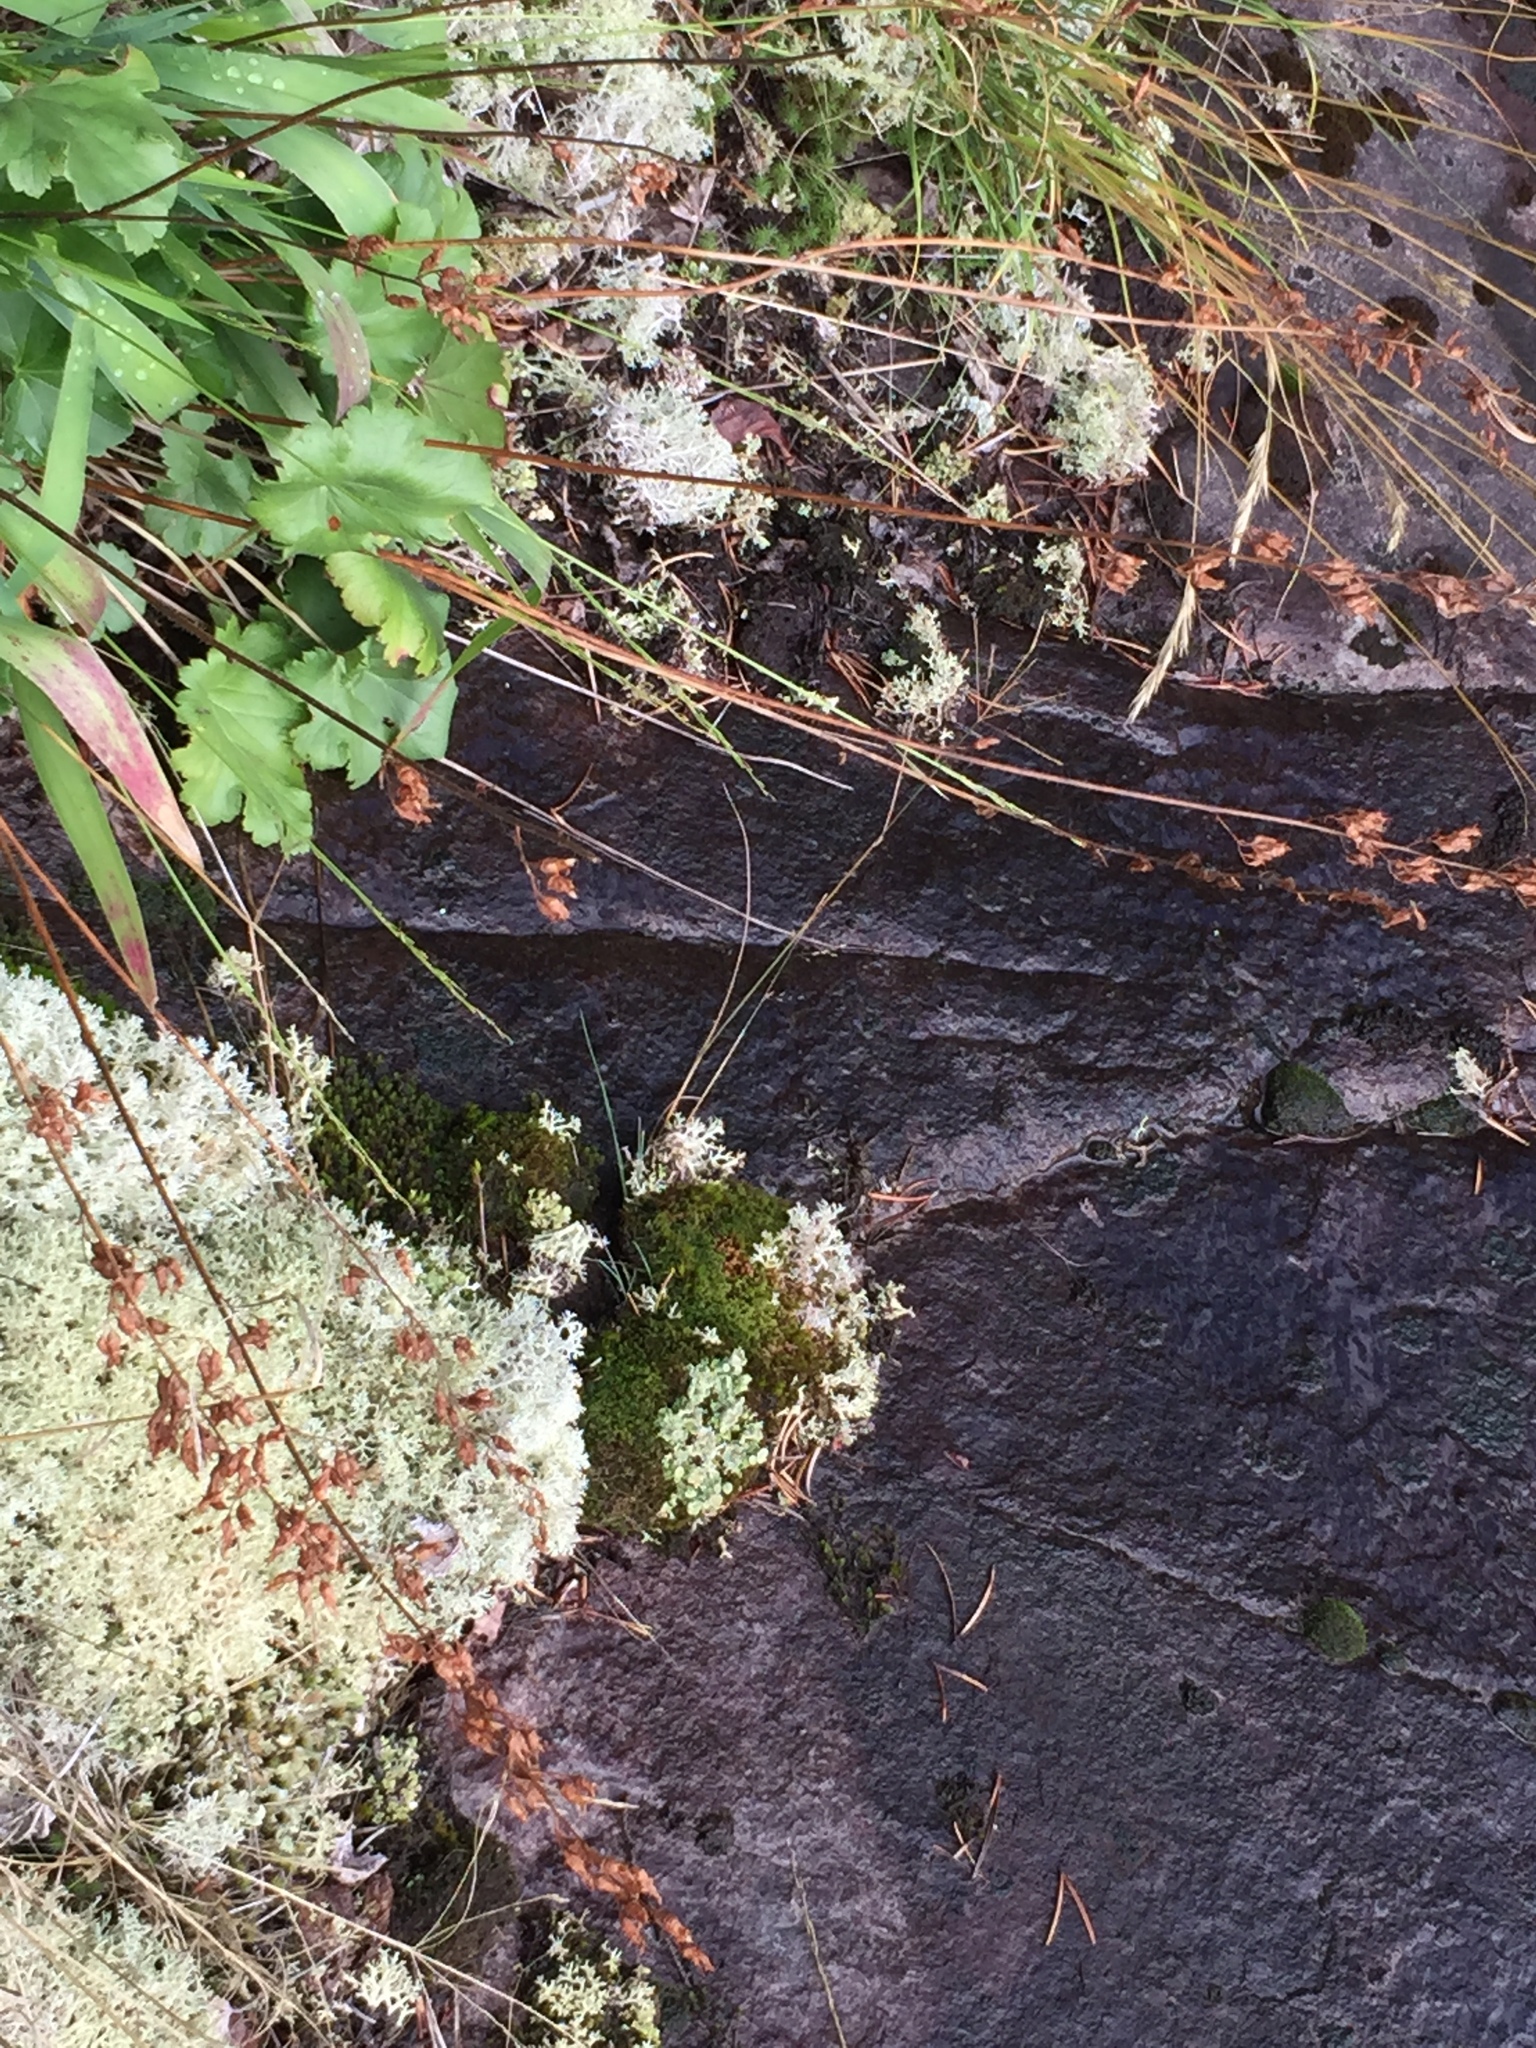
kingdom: Plantae
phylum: Tracheophyta
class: Magnoliopsida
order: Saxifragales
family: Saxifragaceae
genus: Heuchera
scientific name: Heuchera richardsonii
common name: Richardson's alumroot
